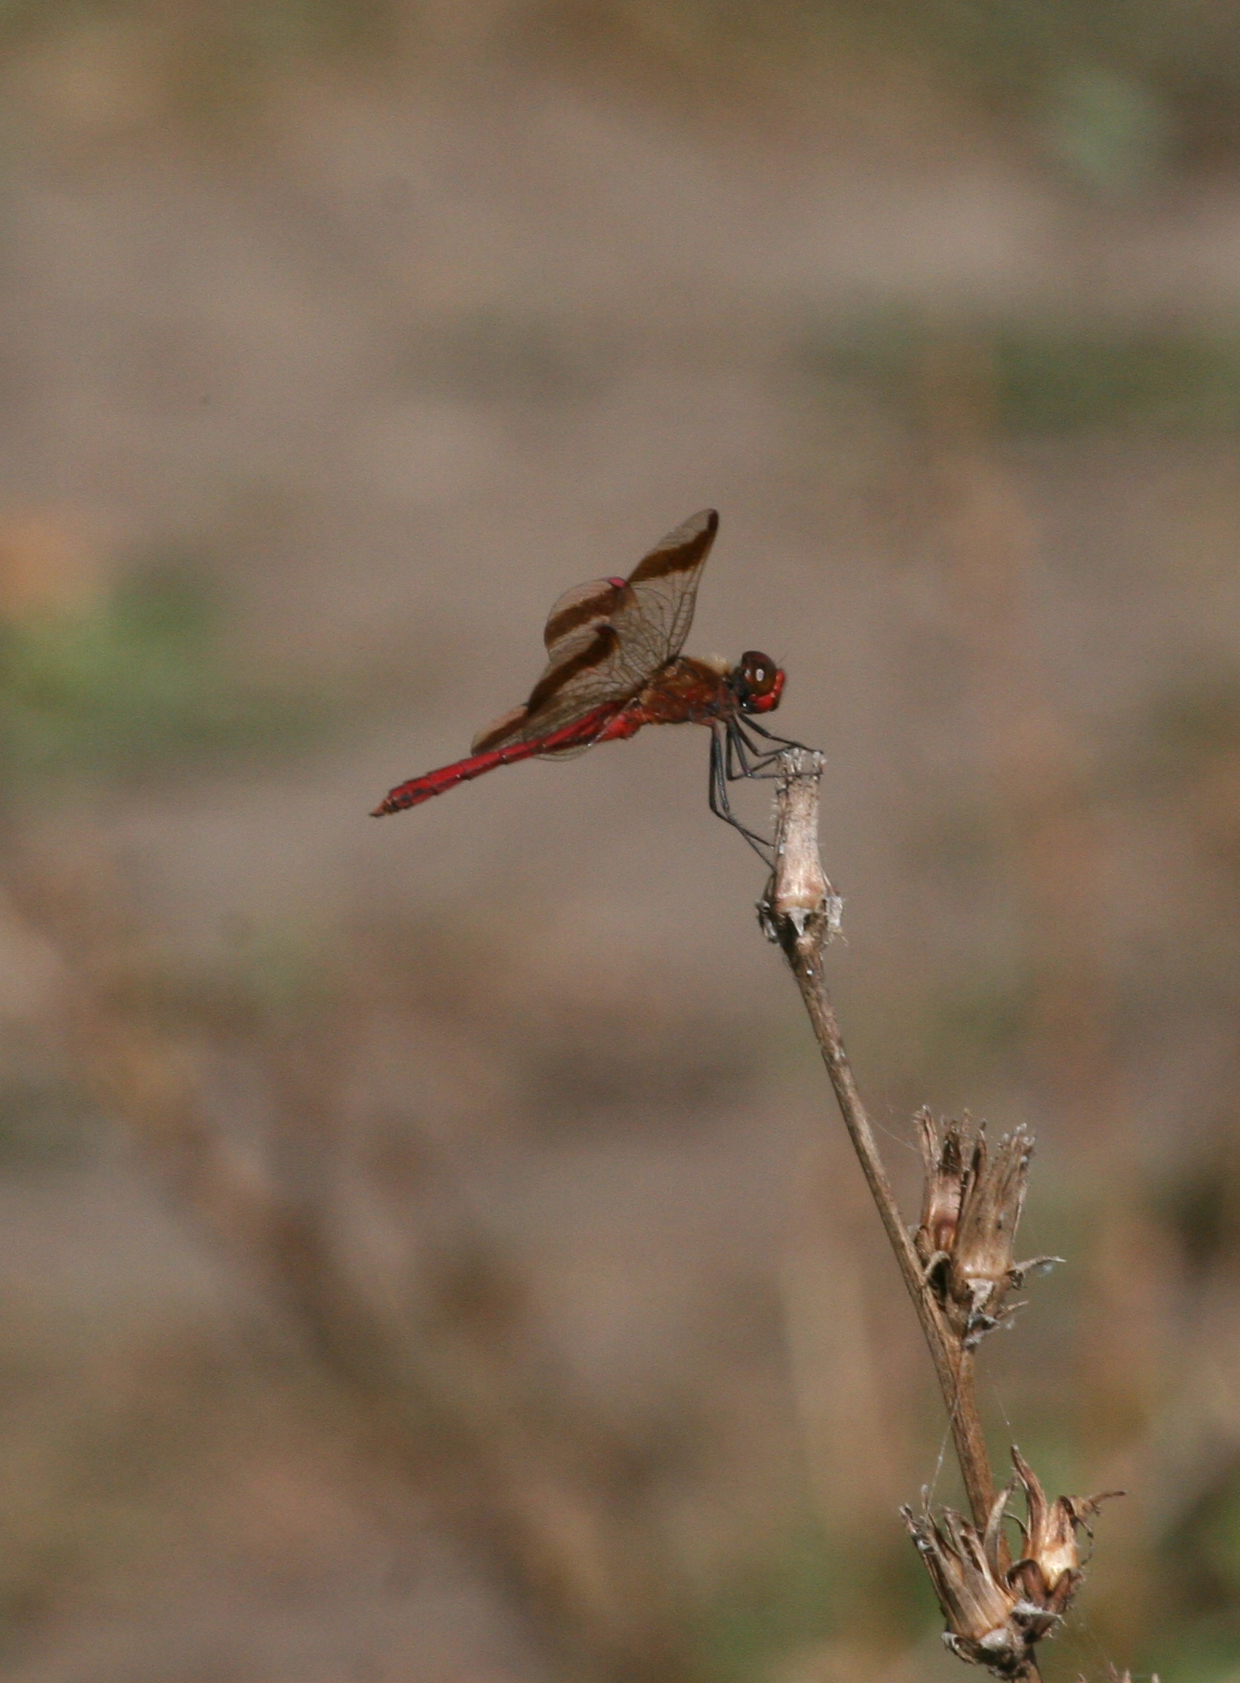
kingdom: Animalia
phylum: Arthropoda
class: Insecta
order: Odonata
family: Libellulidae
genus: Sympetrum
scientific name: Sympetrum pedemontanum
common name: Banded darter
